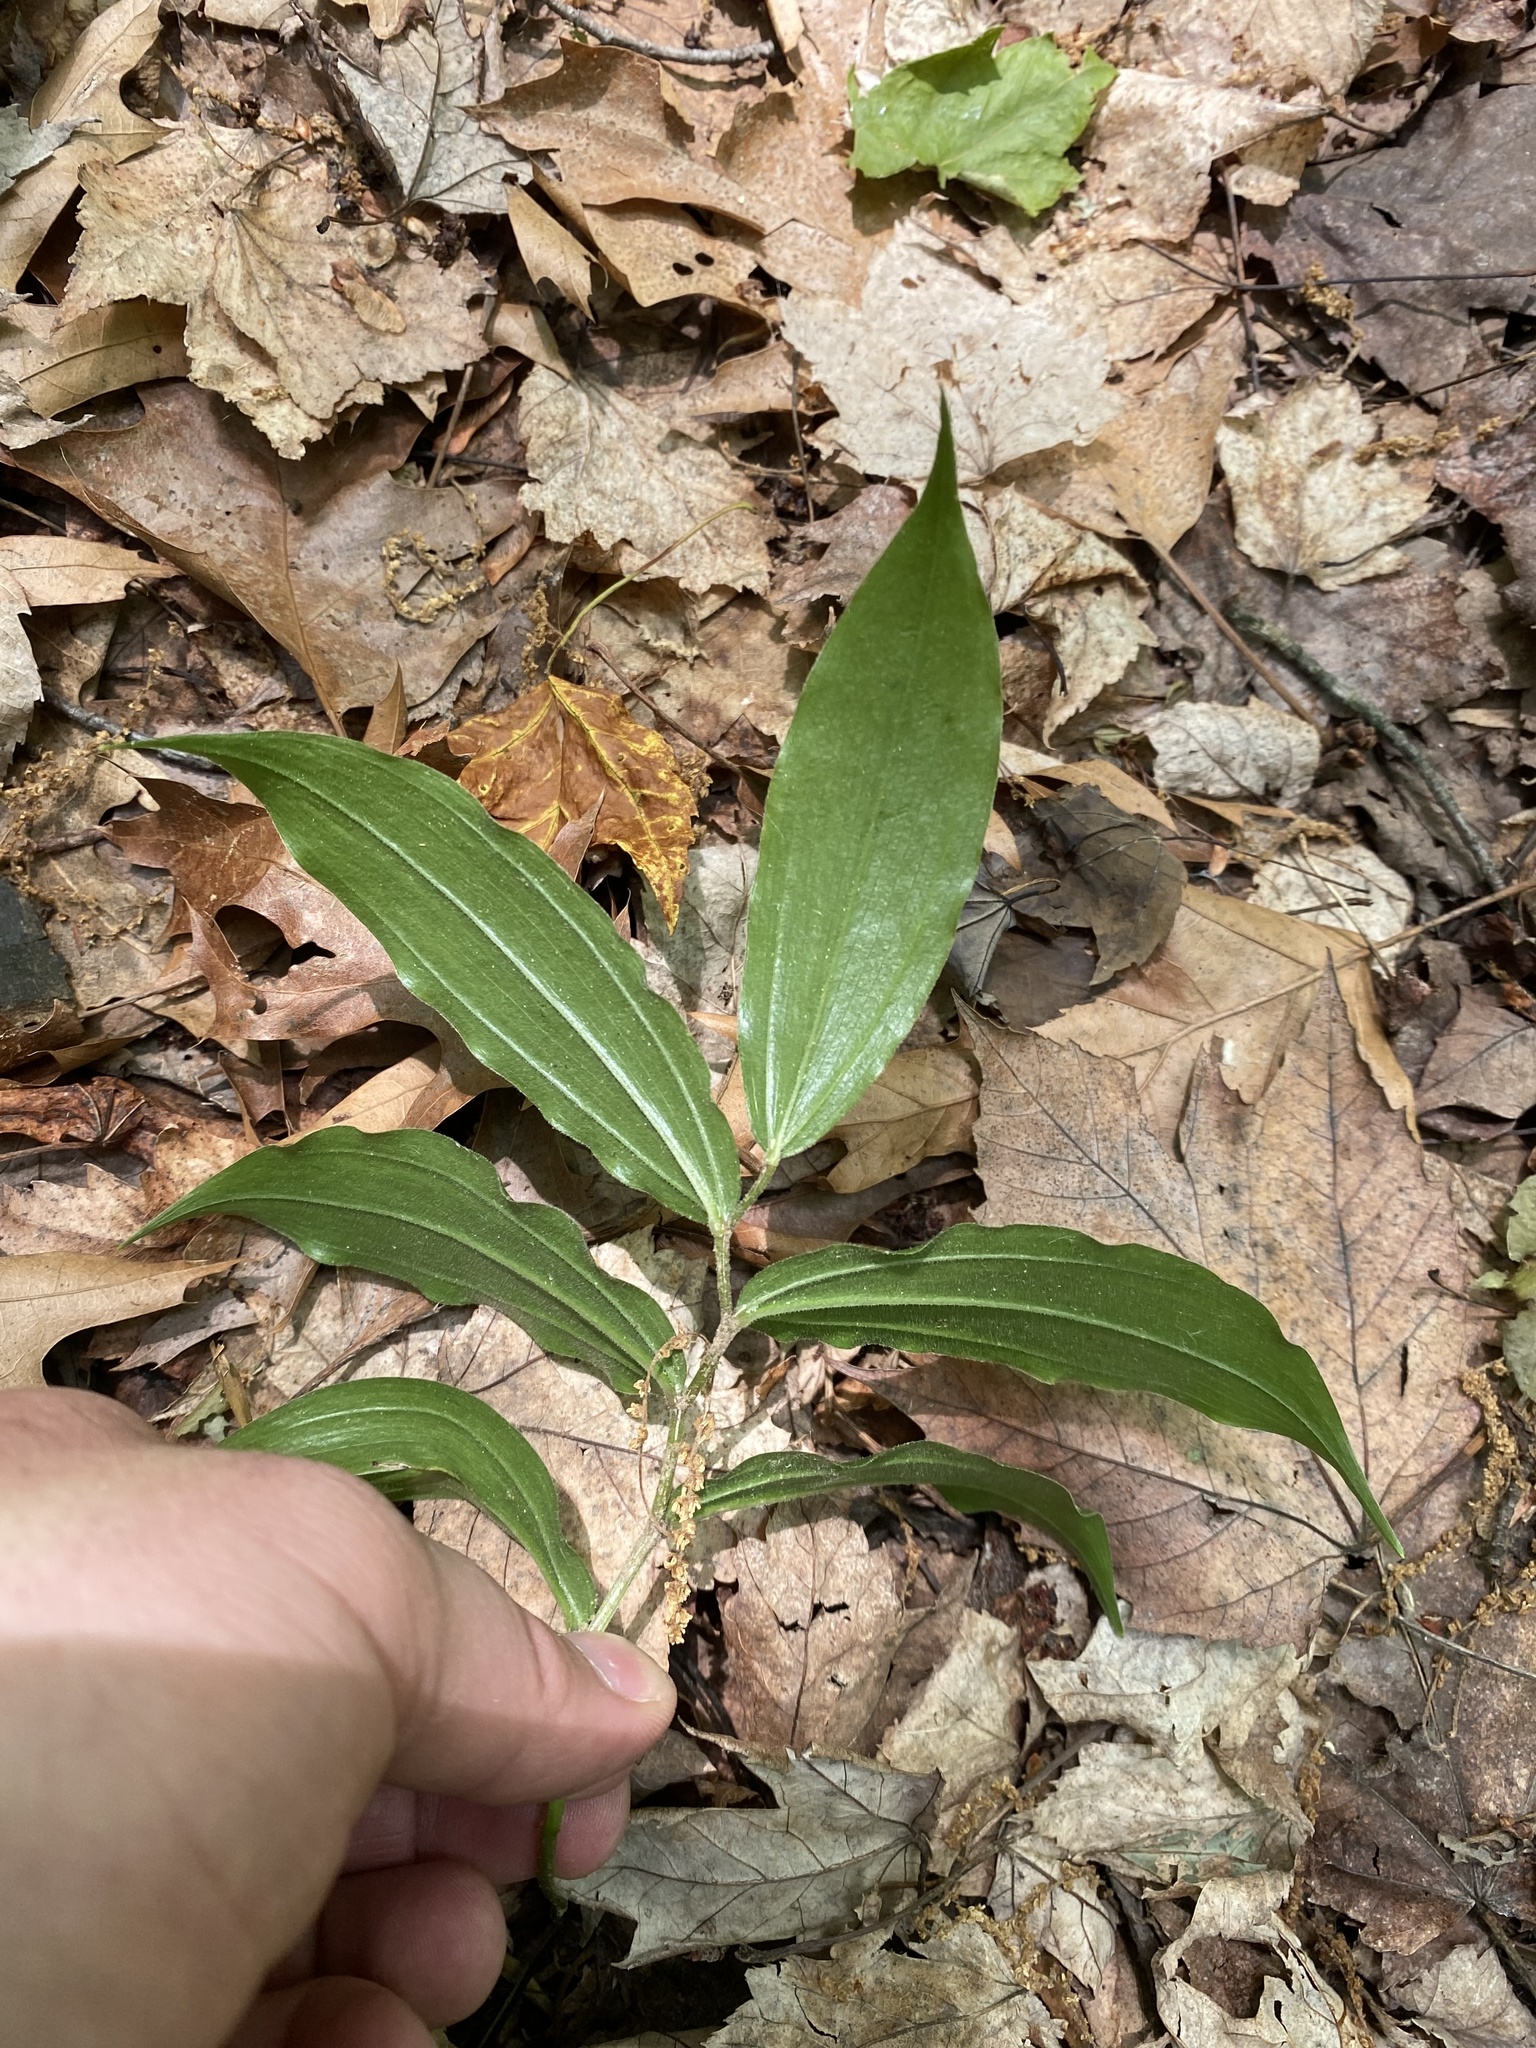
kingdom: Plantae
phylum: Tracheophyta
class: Liliopsida
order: Asparagales
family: Asparagaceae
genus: Maianthemum
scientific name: Maianthemum racemosum
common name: False spikenard
